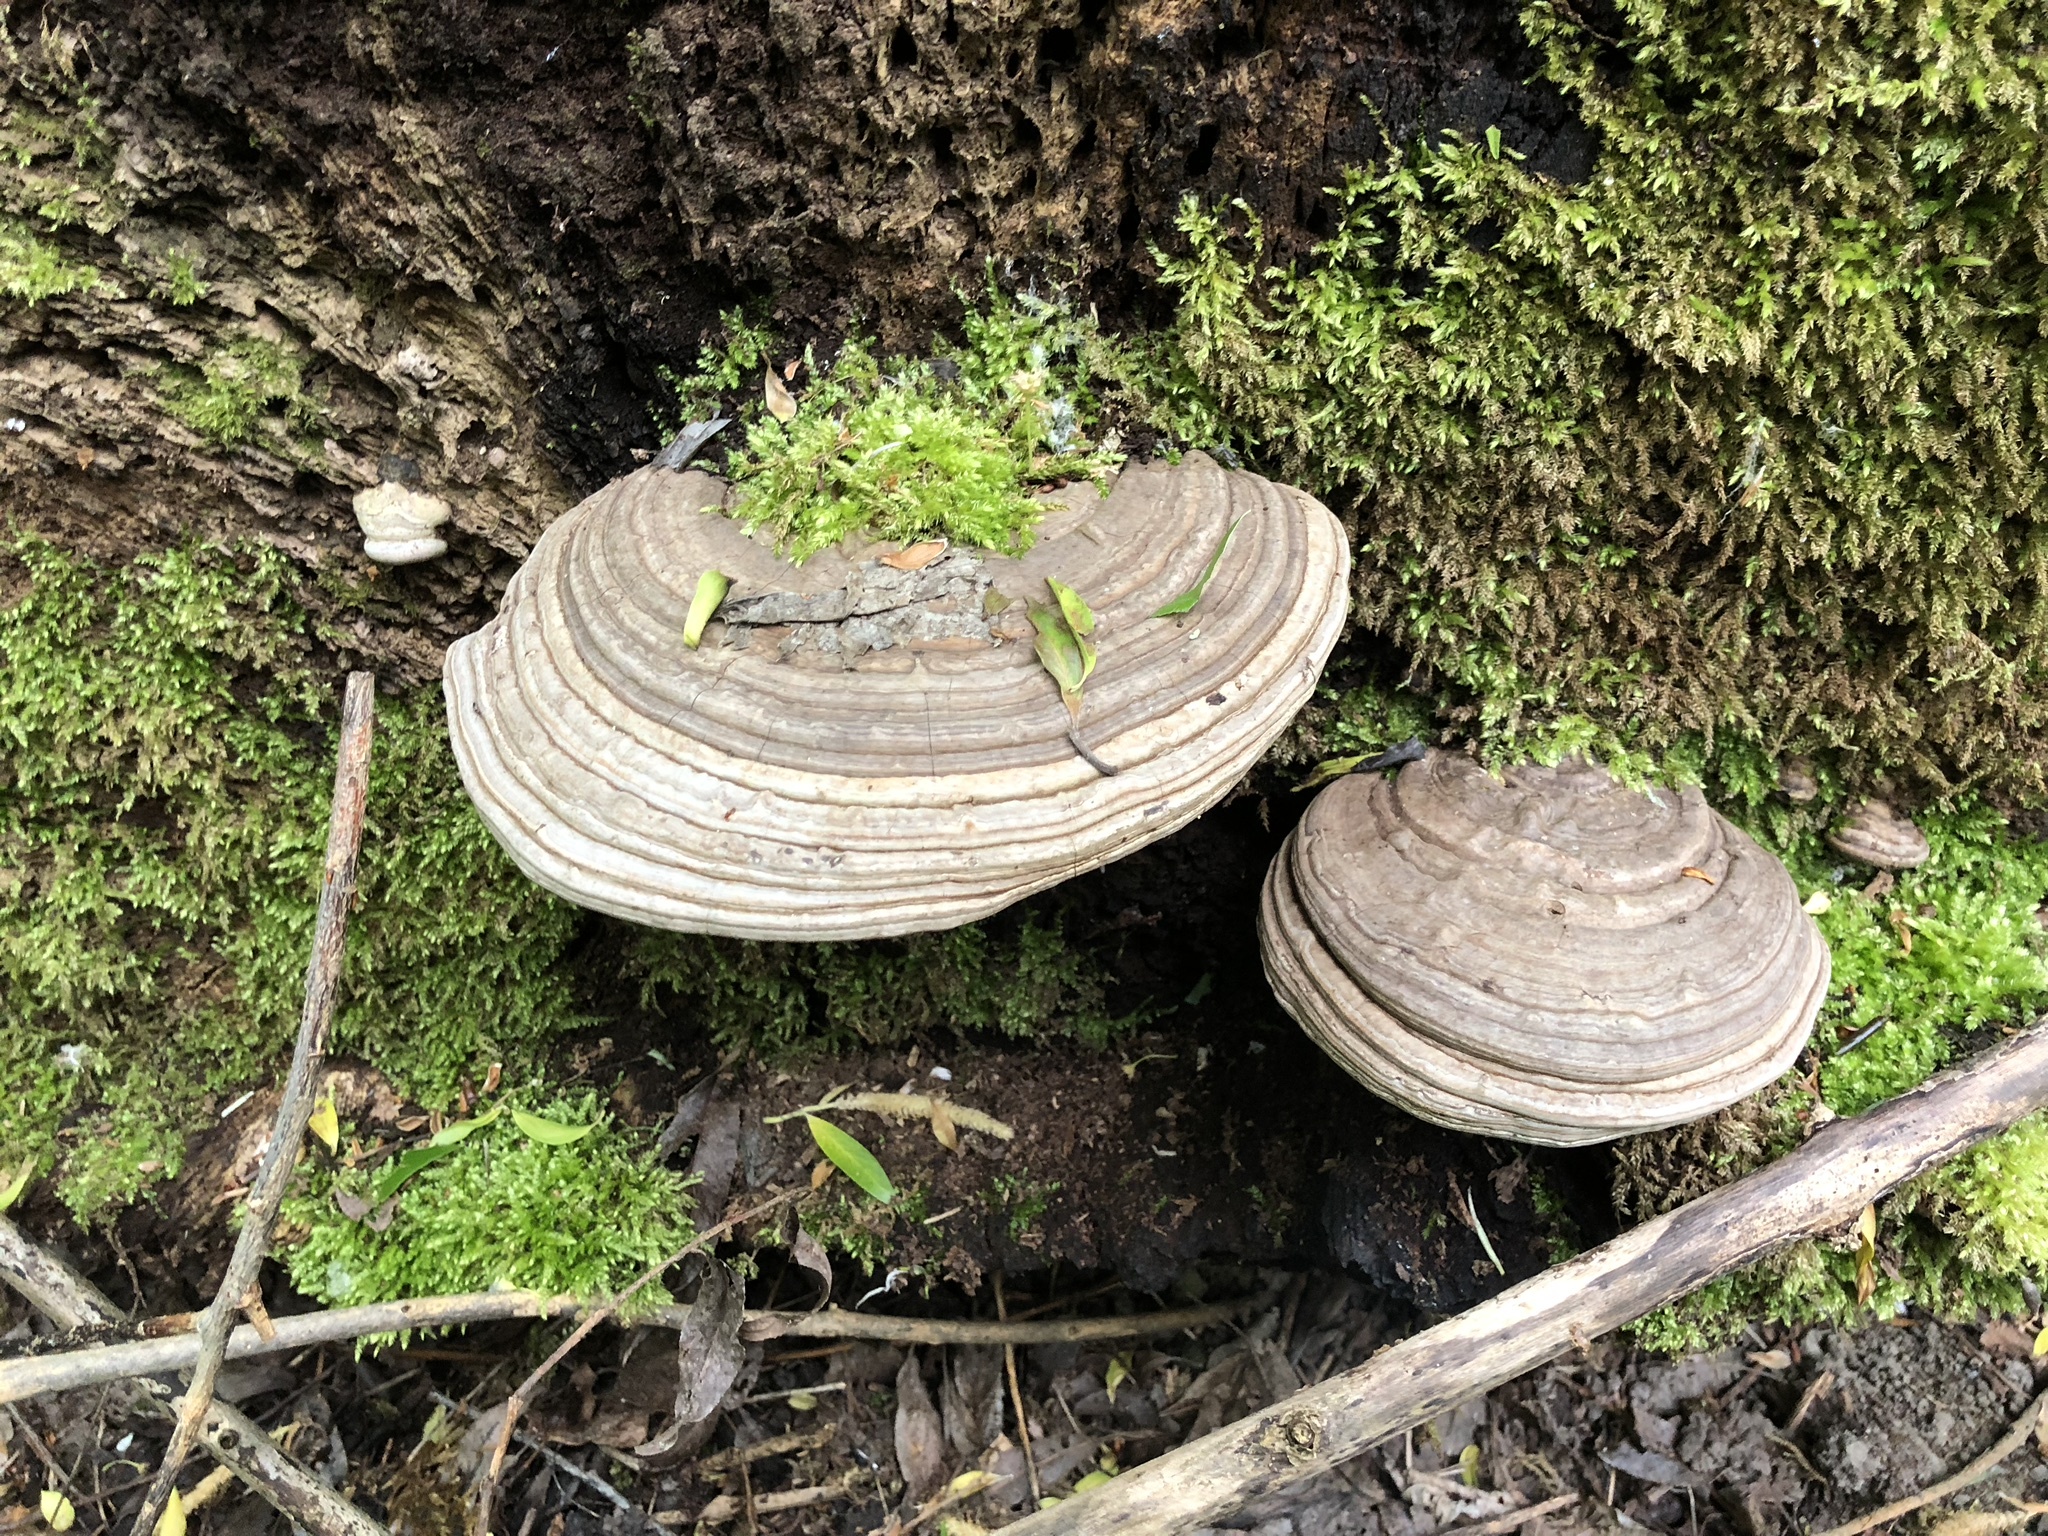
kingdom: Fungi
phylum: Basidiomycota
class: Agaricomycetes
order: Polyporales
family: Polyporaceae
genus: Ganoderma
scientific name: Ganoderma applanatum
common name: Artist's bracket
